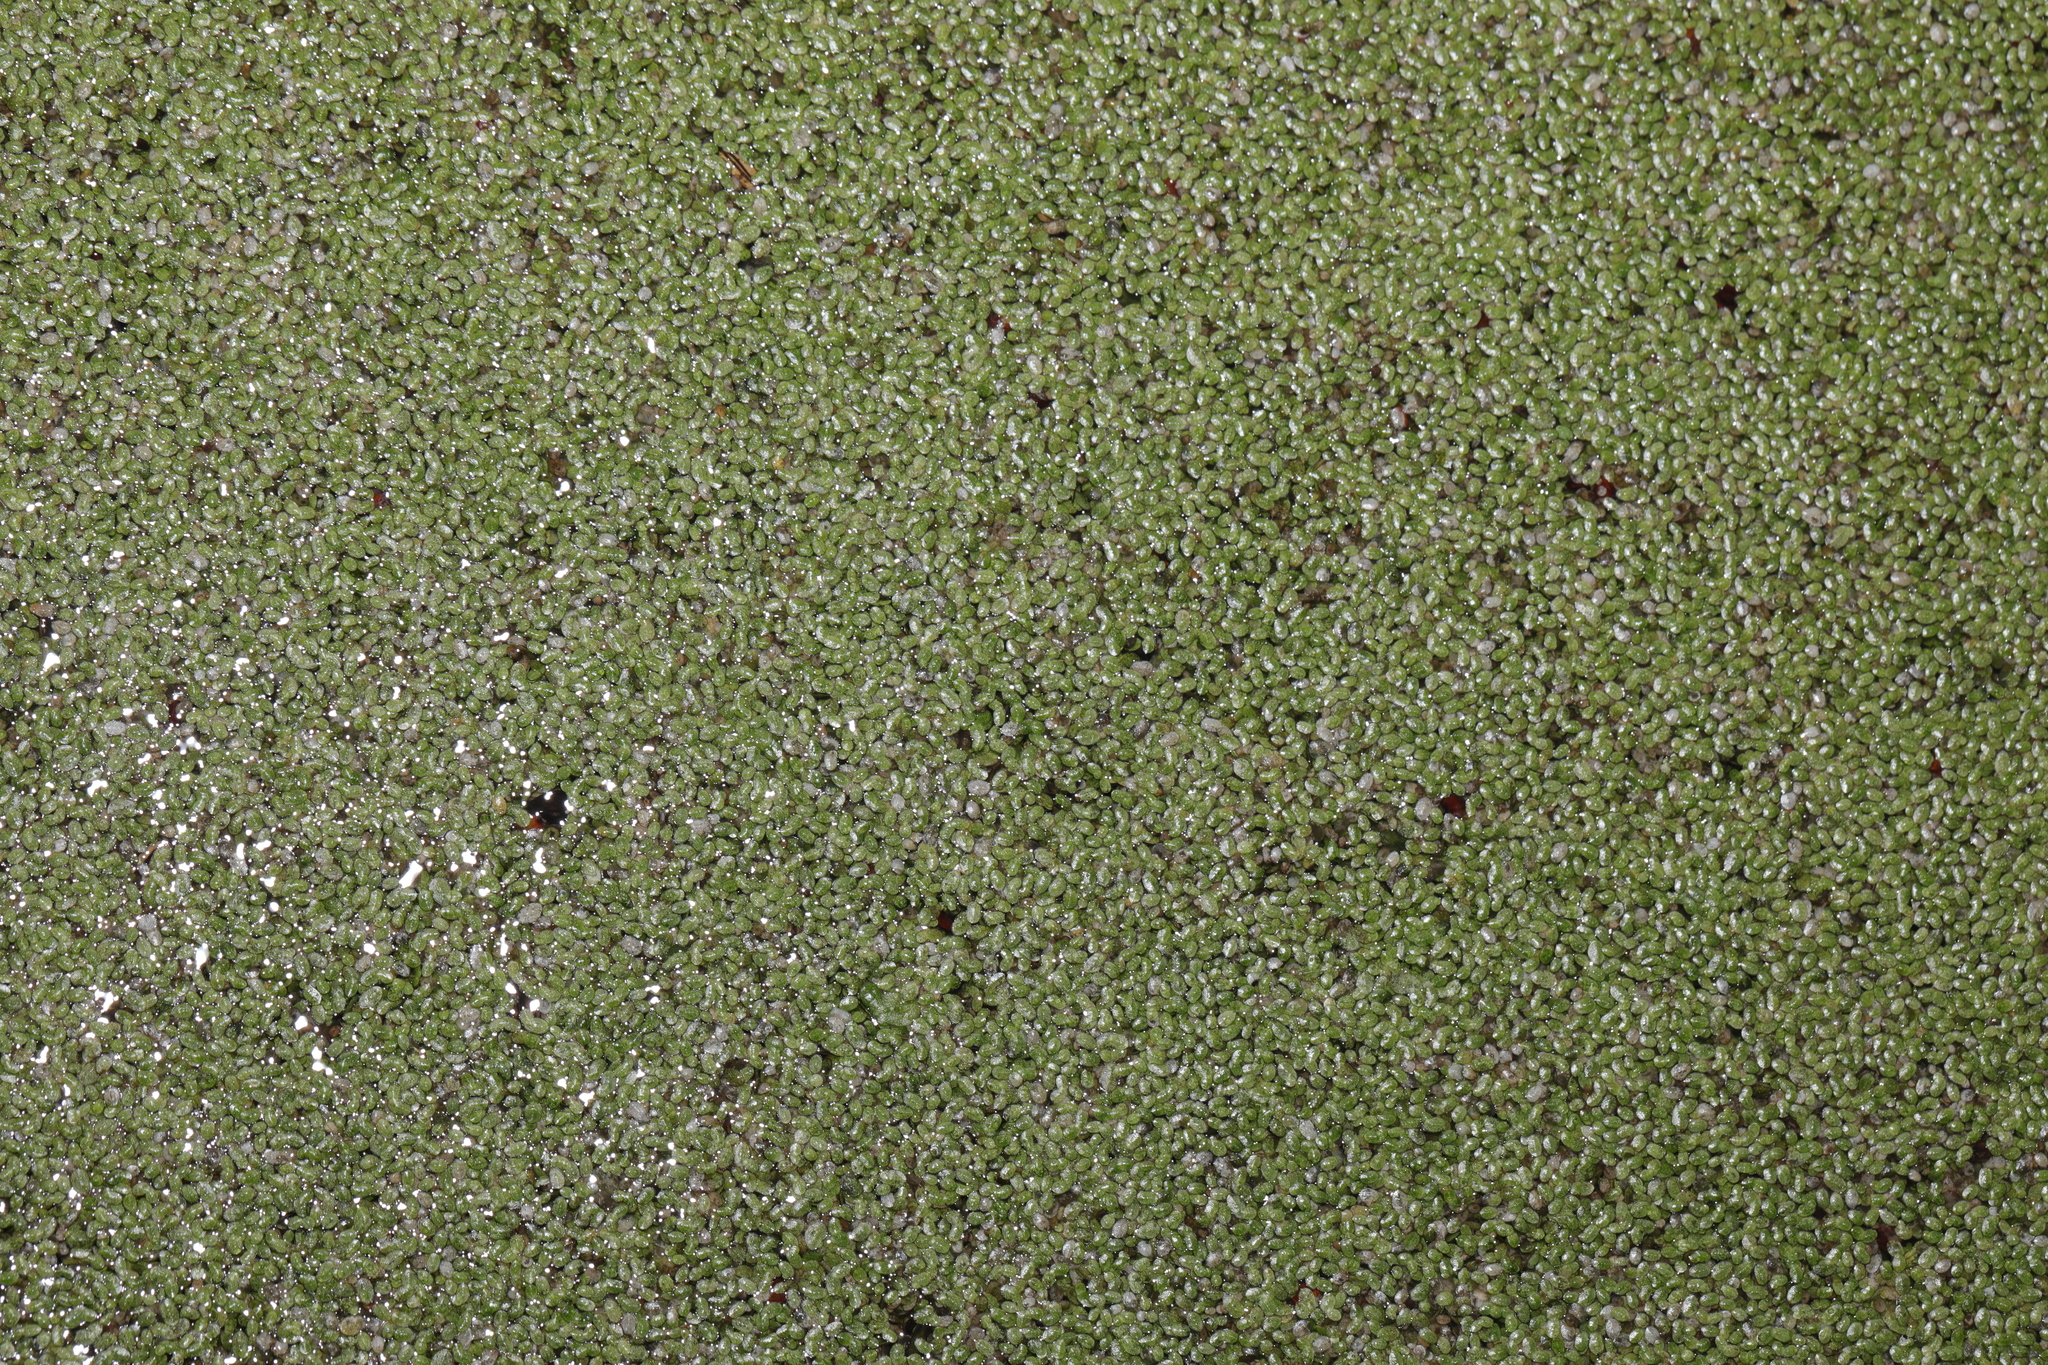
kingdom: Plantae
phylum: Tracheophyta
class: Liliopsida
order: Alismatales
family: Araceae
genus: Lemna
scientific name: Lemna minuta
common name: Least duckweed
